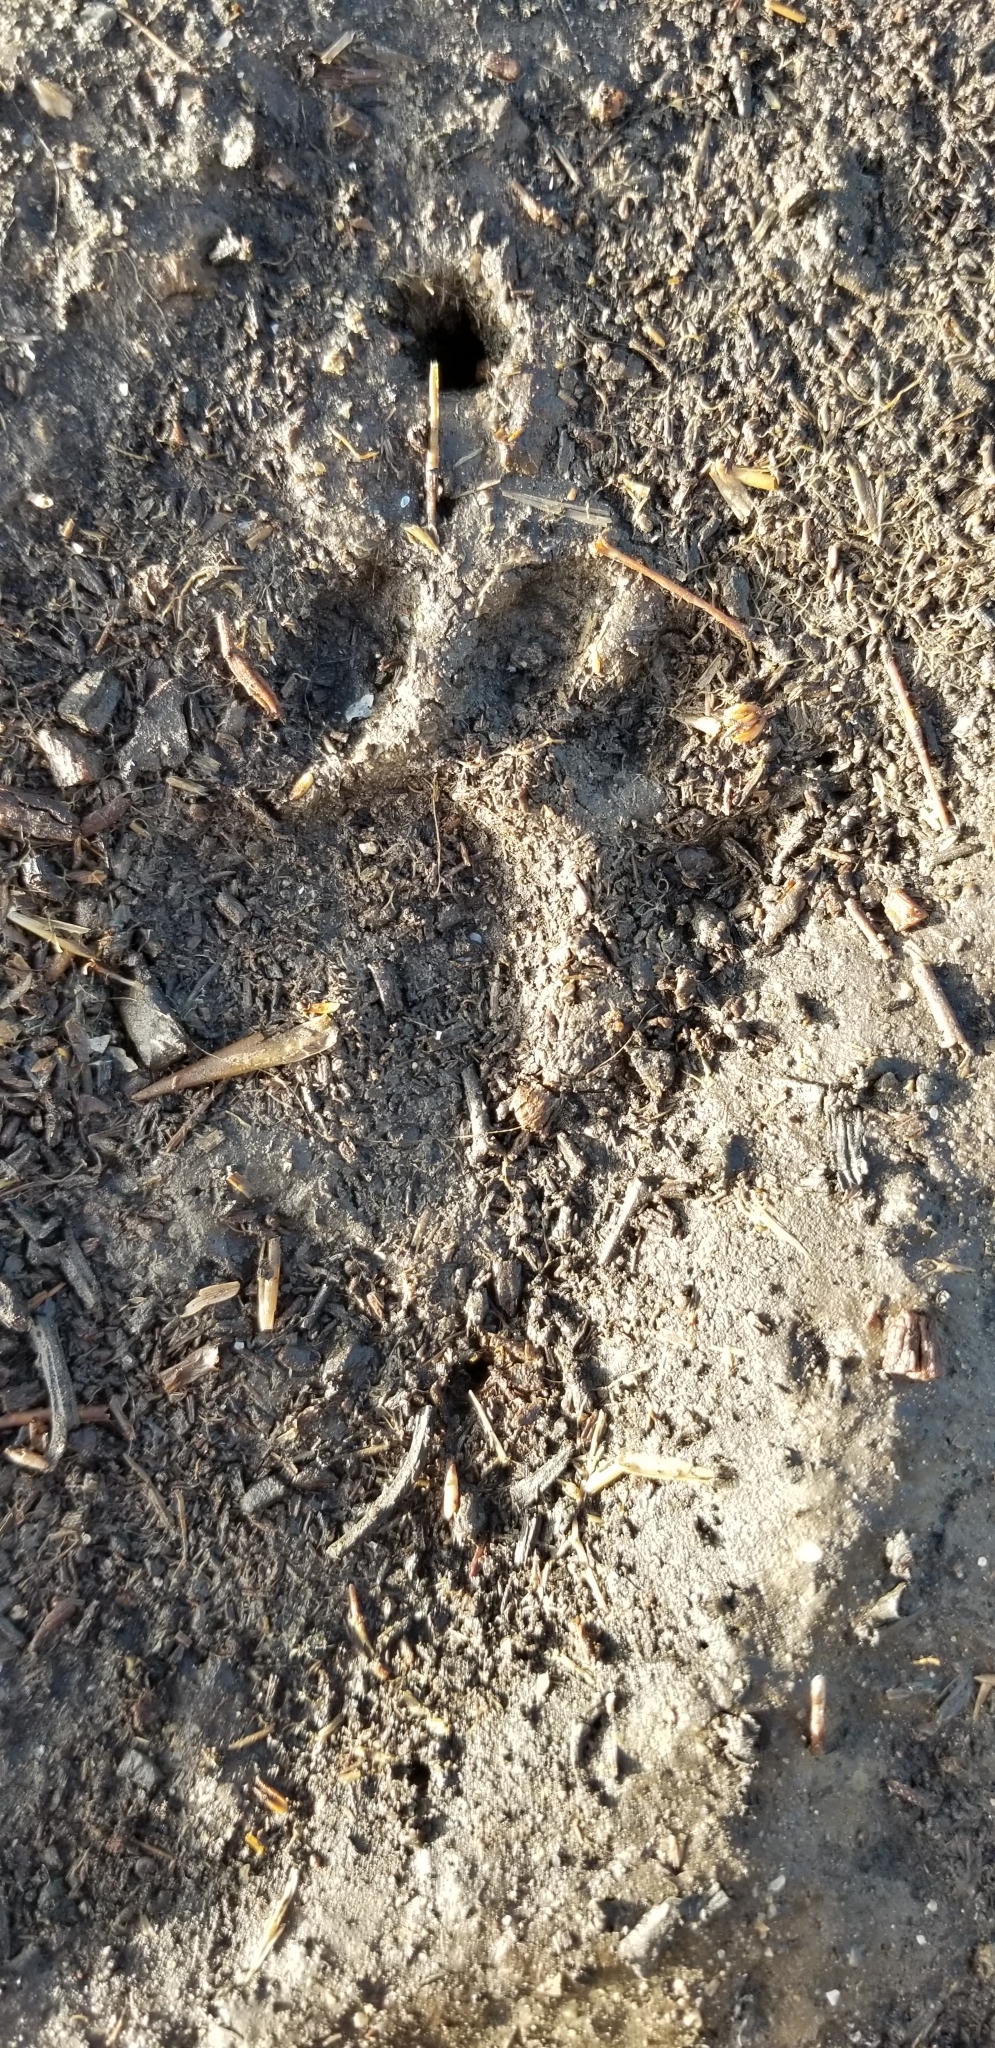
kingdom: Animalia
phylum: Chordata
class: Mammalia
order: Carnivora
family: Procyonidae
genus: Procyon
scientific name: Procyon lotor
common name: Raccoon
